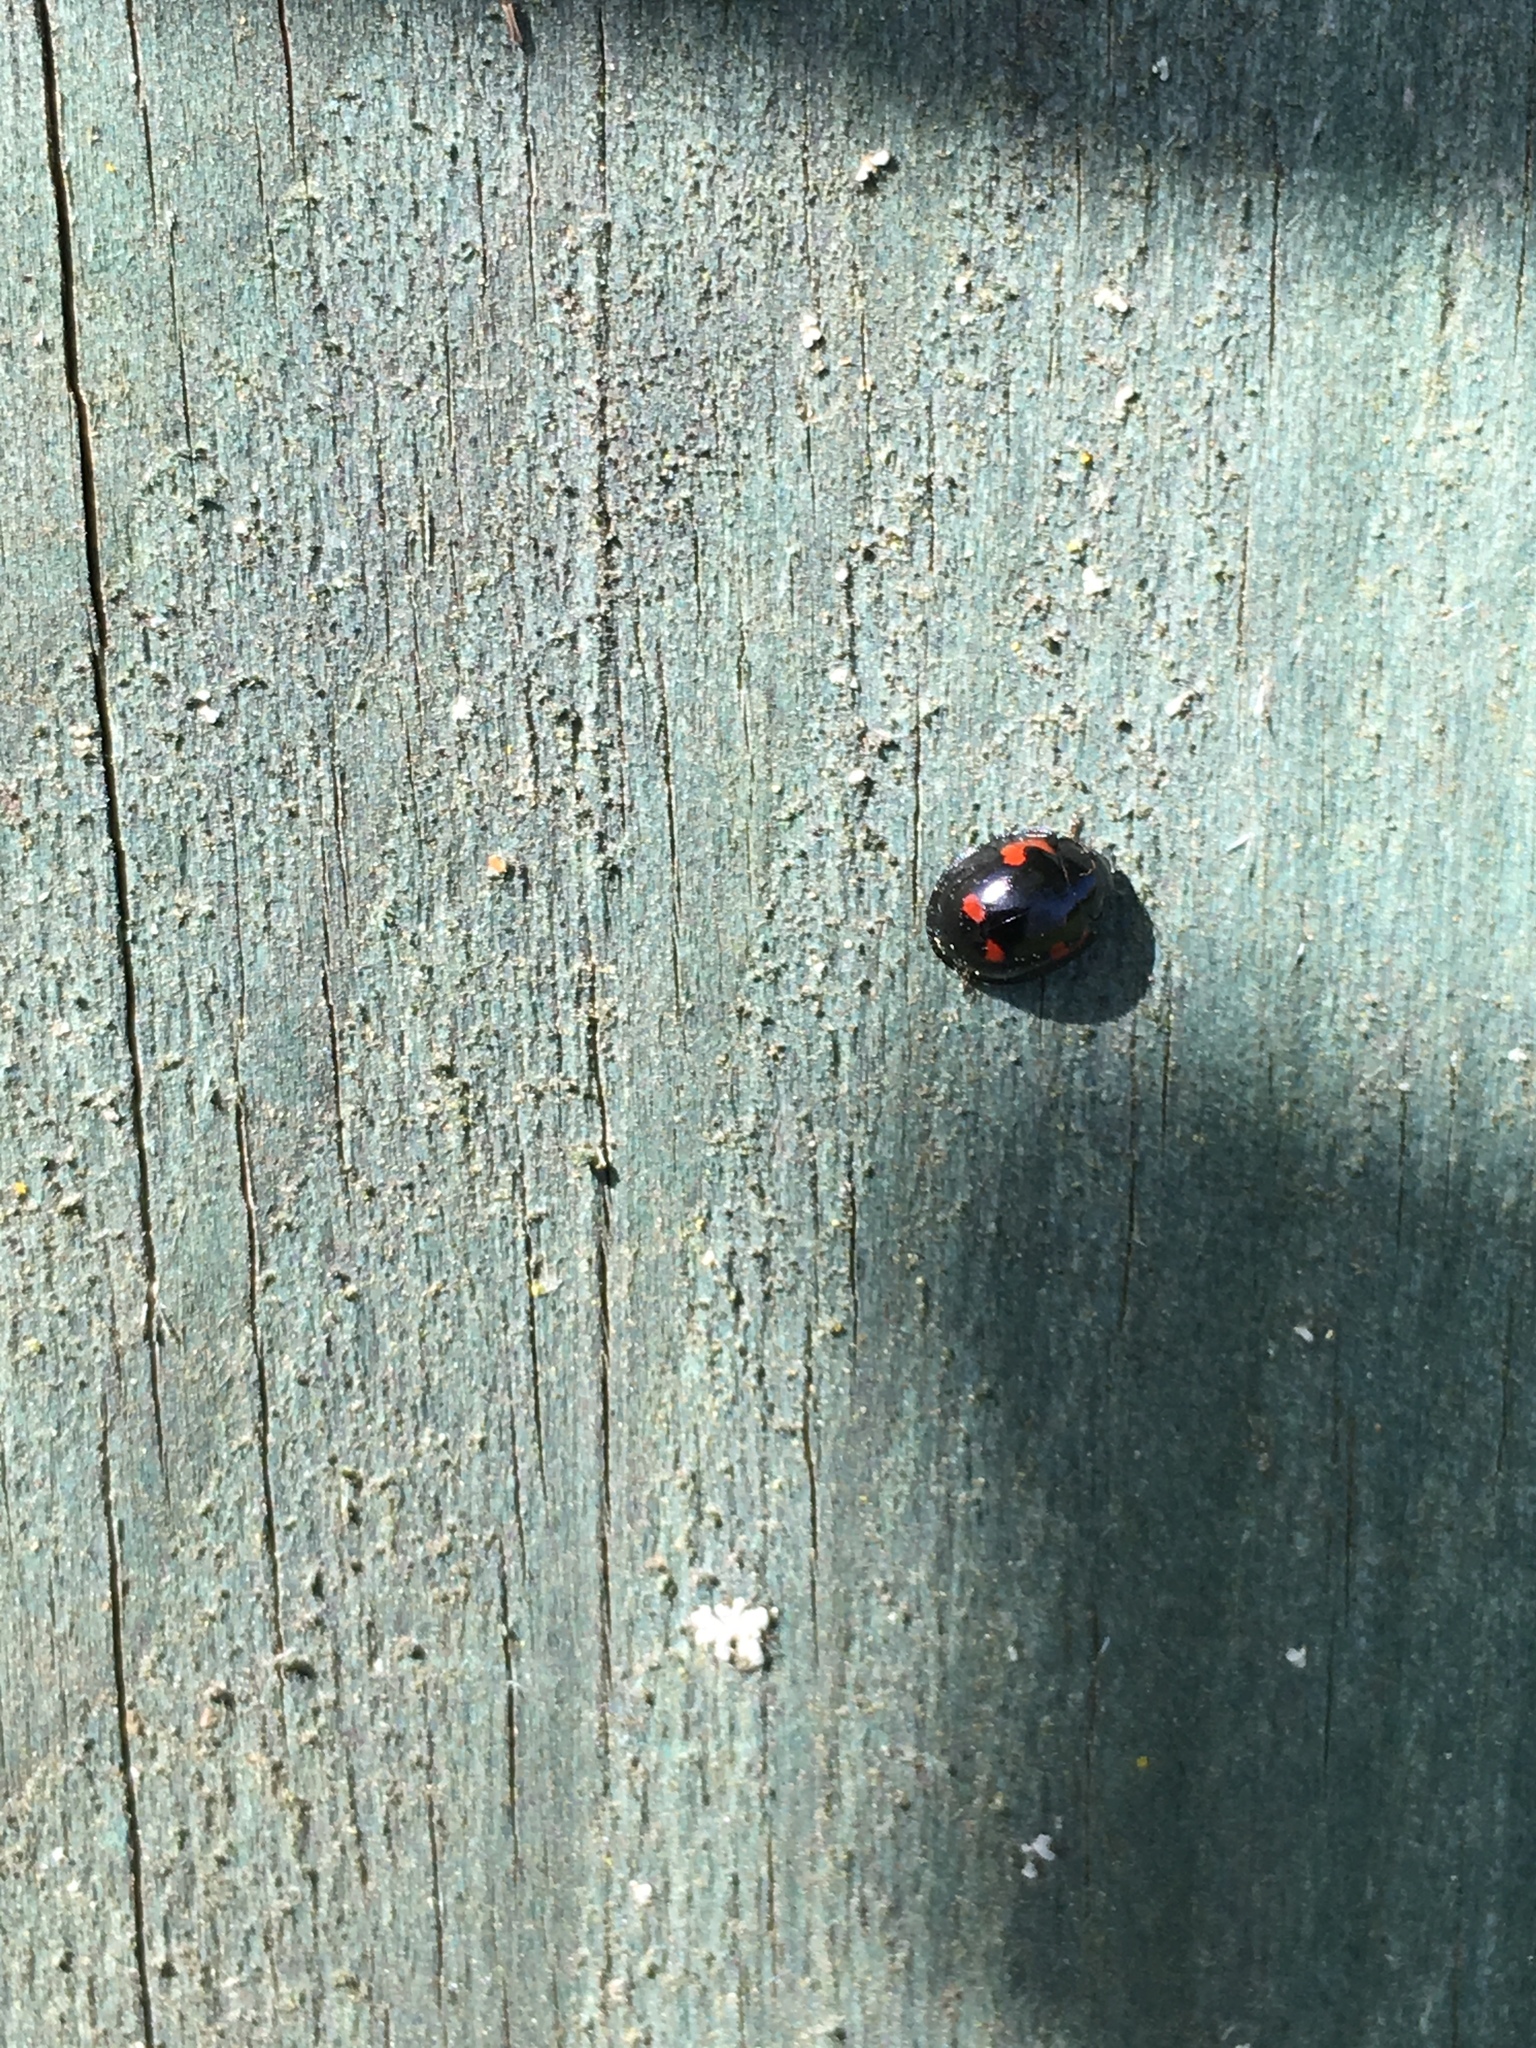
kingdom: Animalia
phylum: Arthropoda
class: Insecta
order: Coleoptera
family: Coccinellidae
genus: Brumus
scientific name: Brumus quadripustulatus
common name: Ladybird beetle
